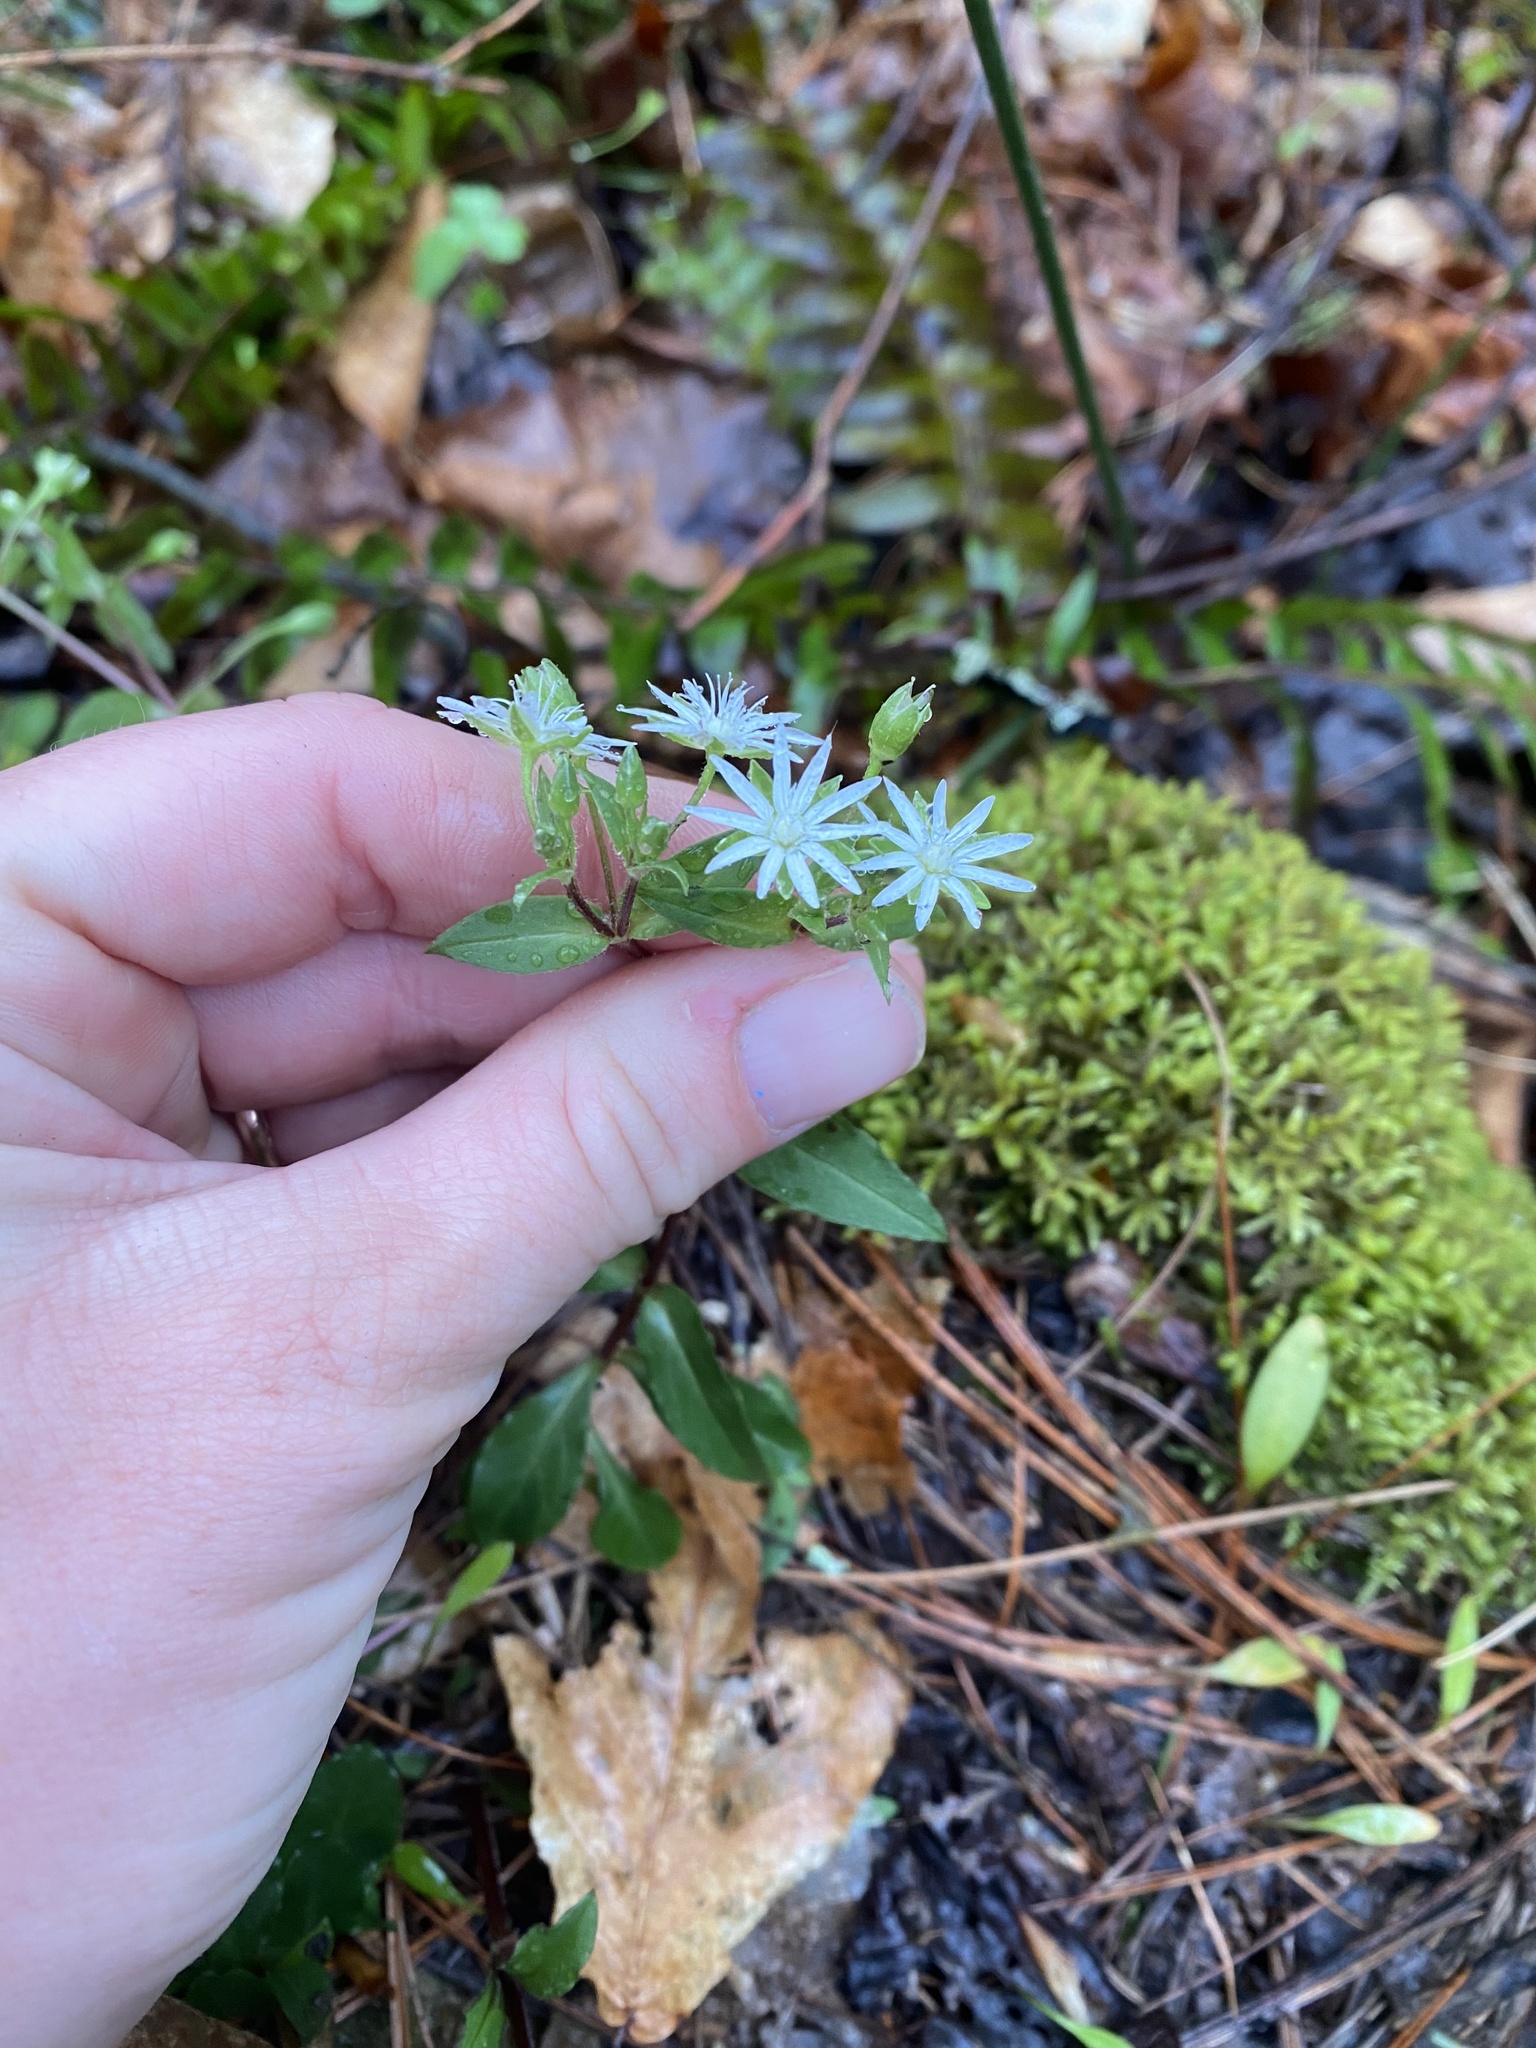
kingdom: Plantae
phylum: Tracheophyta
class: Magnoliopsida
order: Caryophyllales
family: Caryophyllaceae
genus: Stellaria
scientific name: Stellaria pubera
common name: Star chickweed
